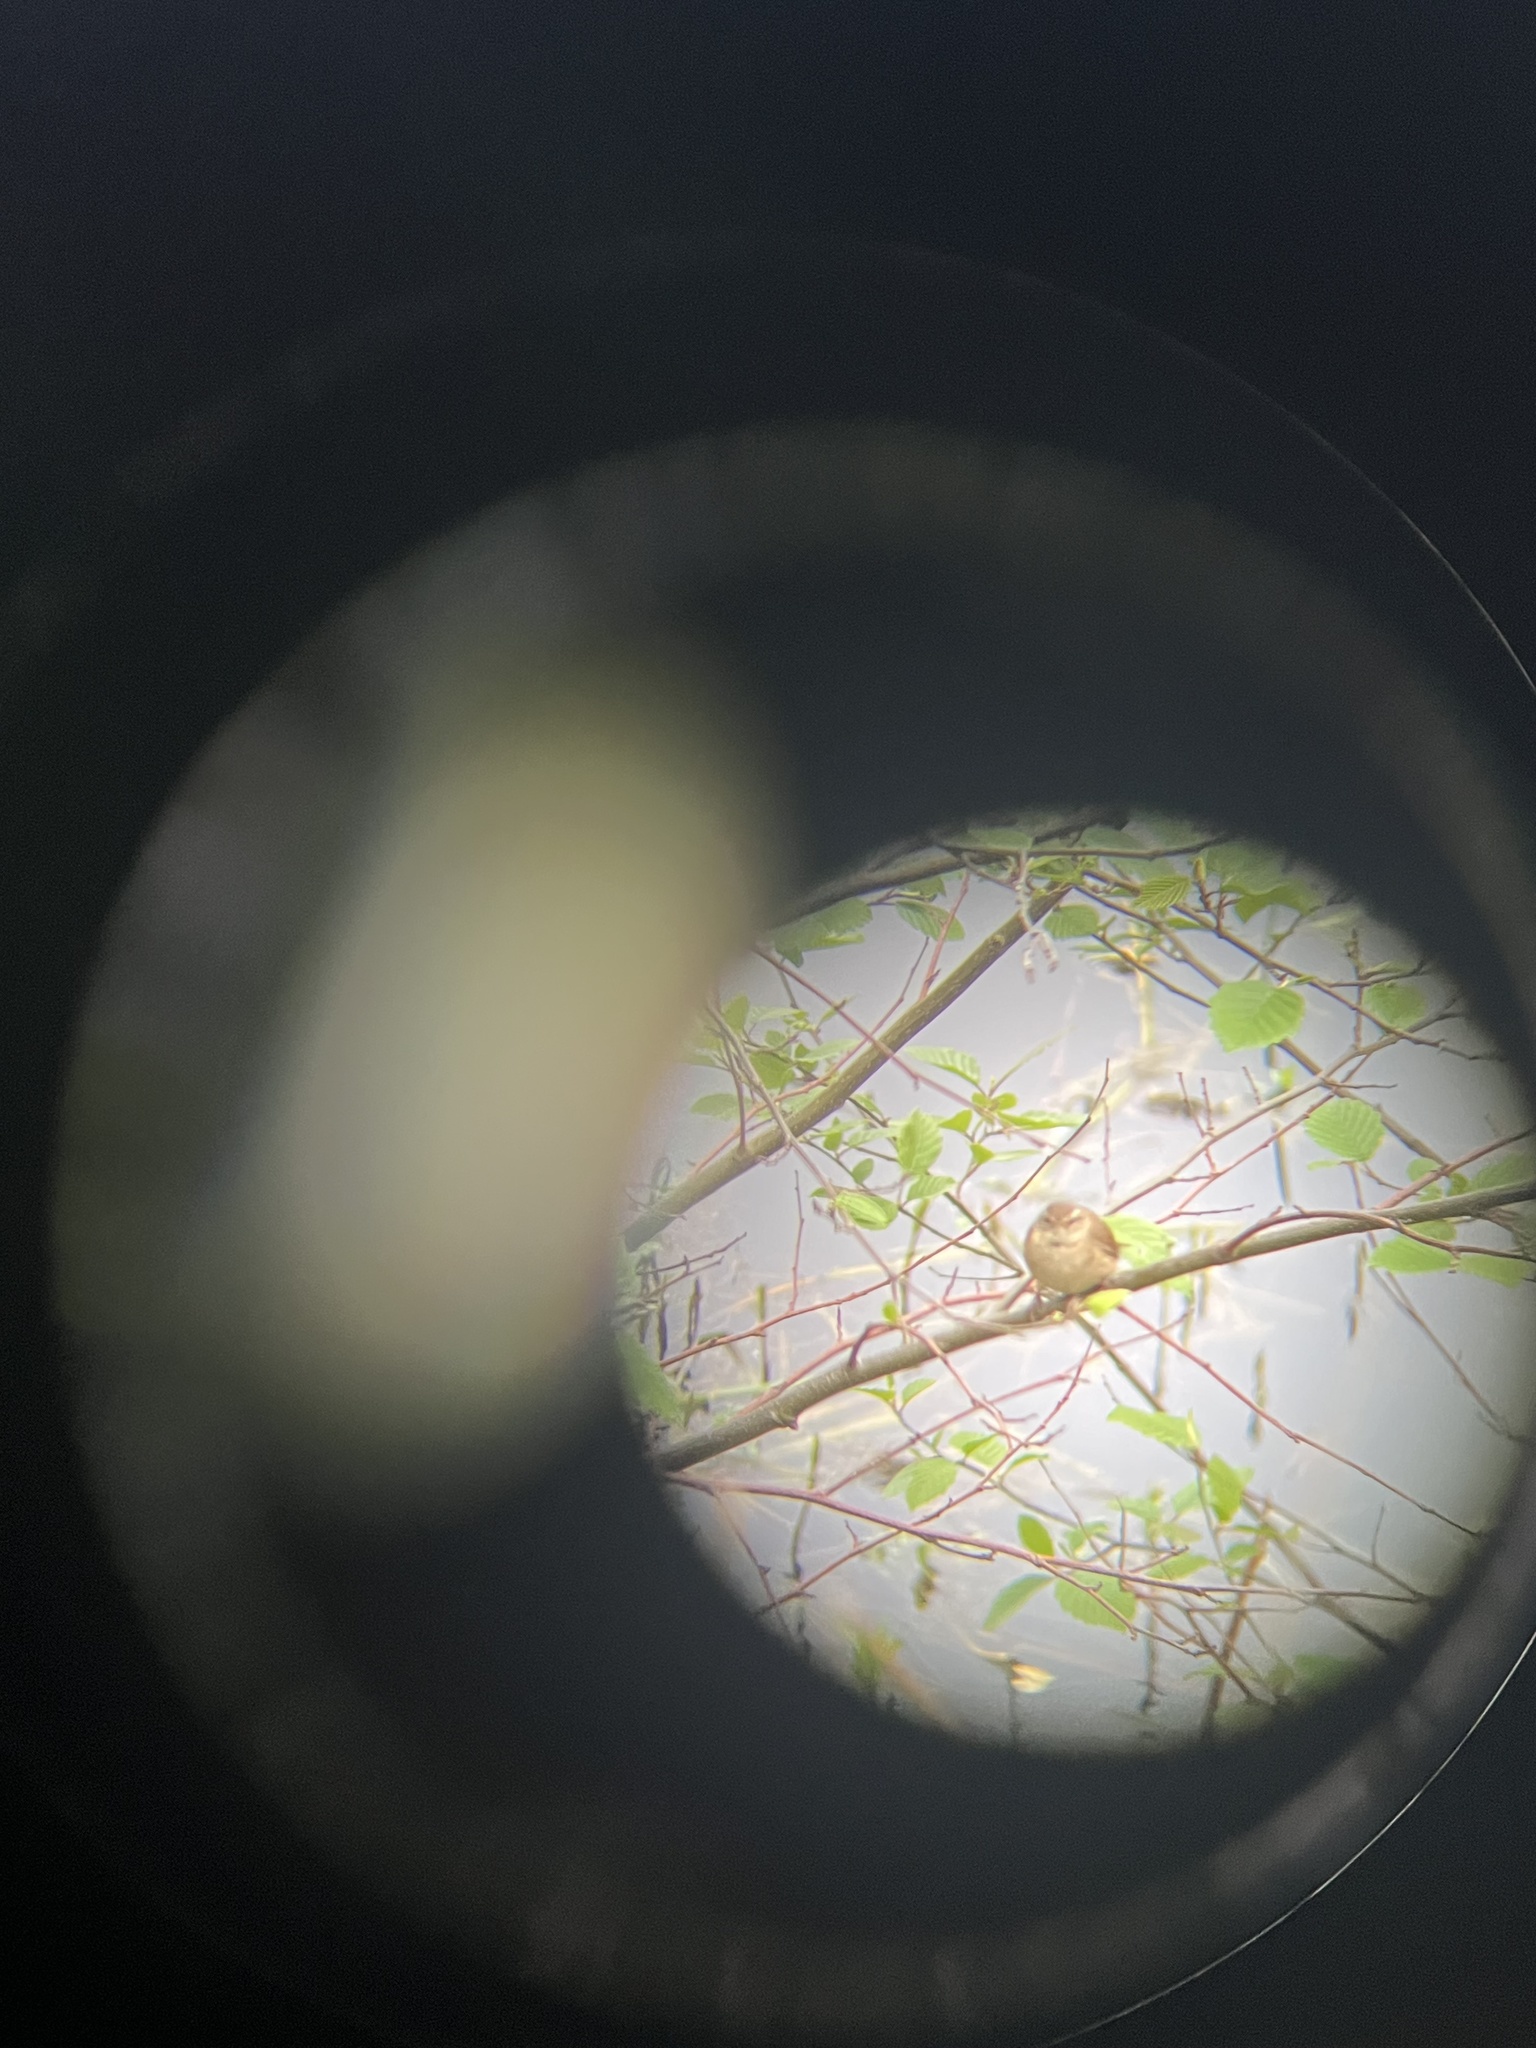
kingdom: Animalia
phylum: Chordata
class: Aves
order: Passeriformes
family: Troglodytidae
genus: Troglodytes
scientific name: Troglodytes troglodytes
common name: Eurasian wren
